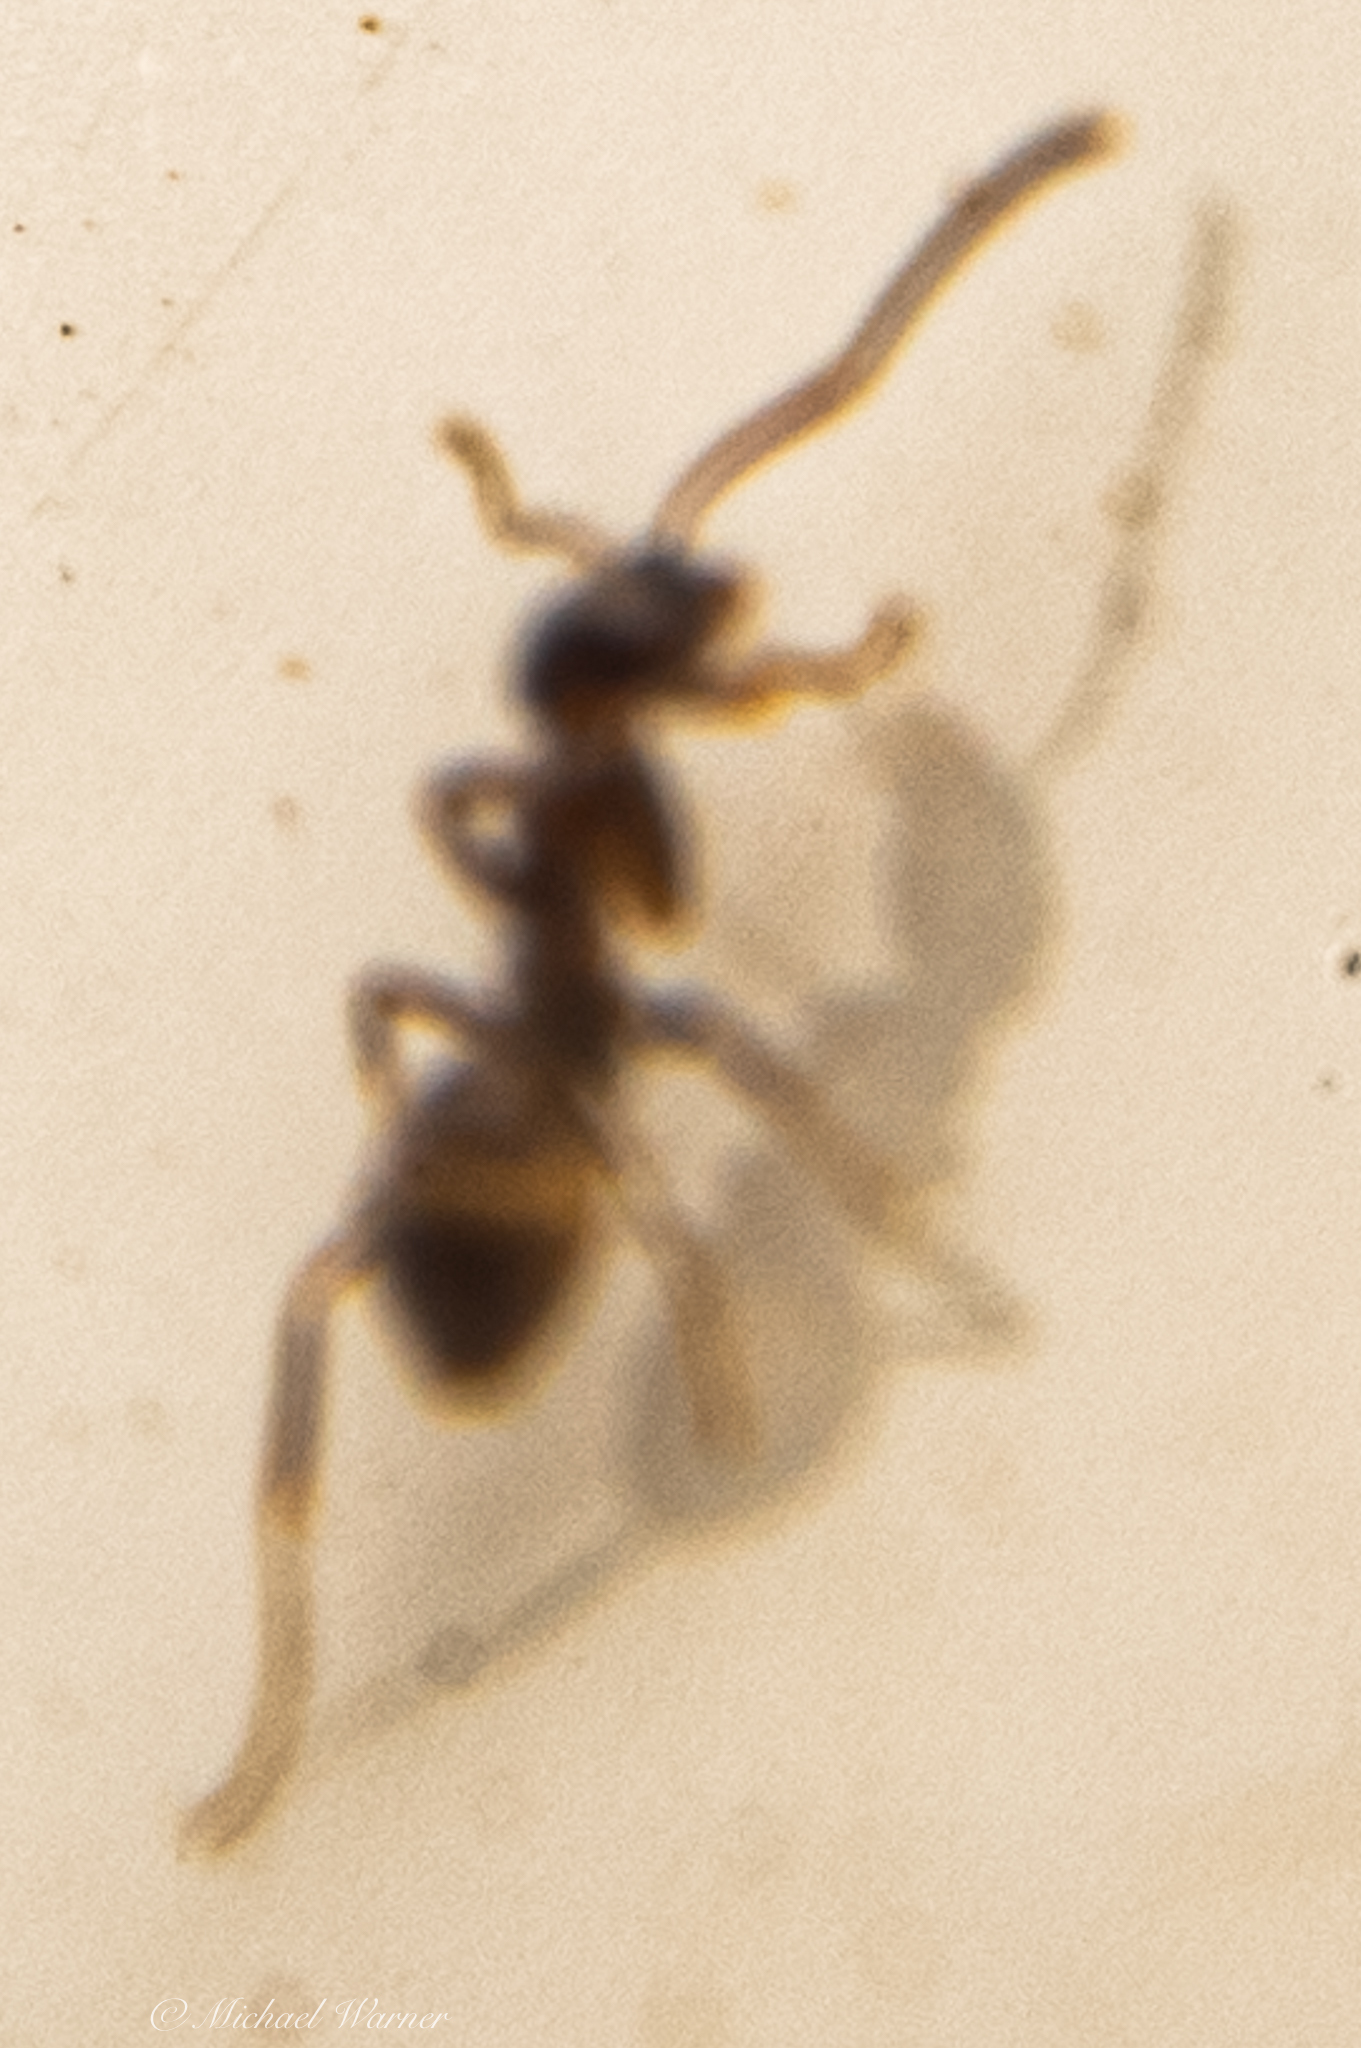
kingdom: Animalia
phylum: Arthropoda
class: Insecta
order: Hymenoptera
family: Formicidae
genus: Linepithema
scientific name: Linepithema humile
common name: Argentine ant
